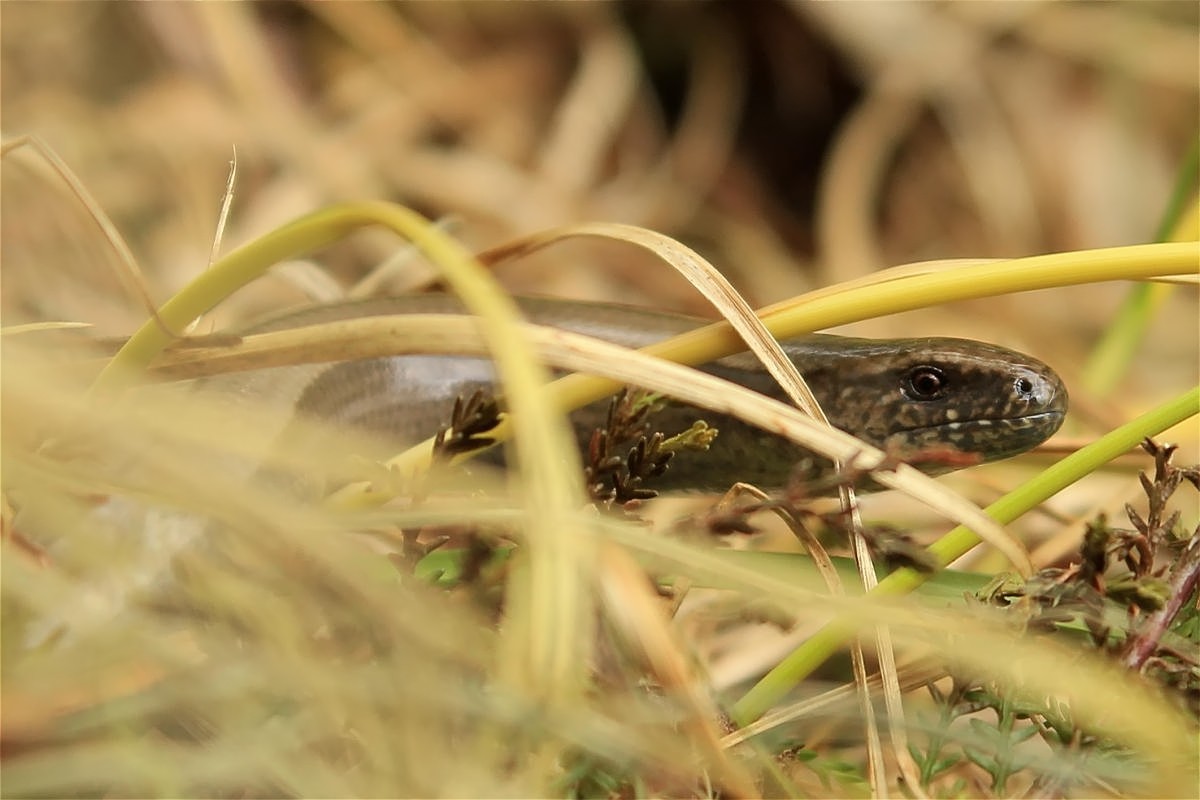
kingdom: Animalia
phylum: Chordata
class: Squamata
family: Anguidae
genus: Anguis
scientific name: Anguis fragilis
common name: Slow worm
